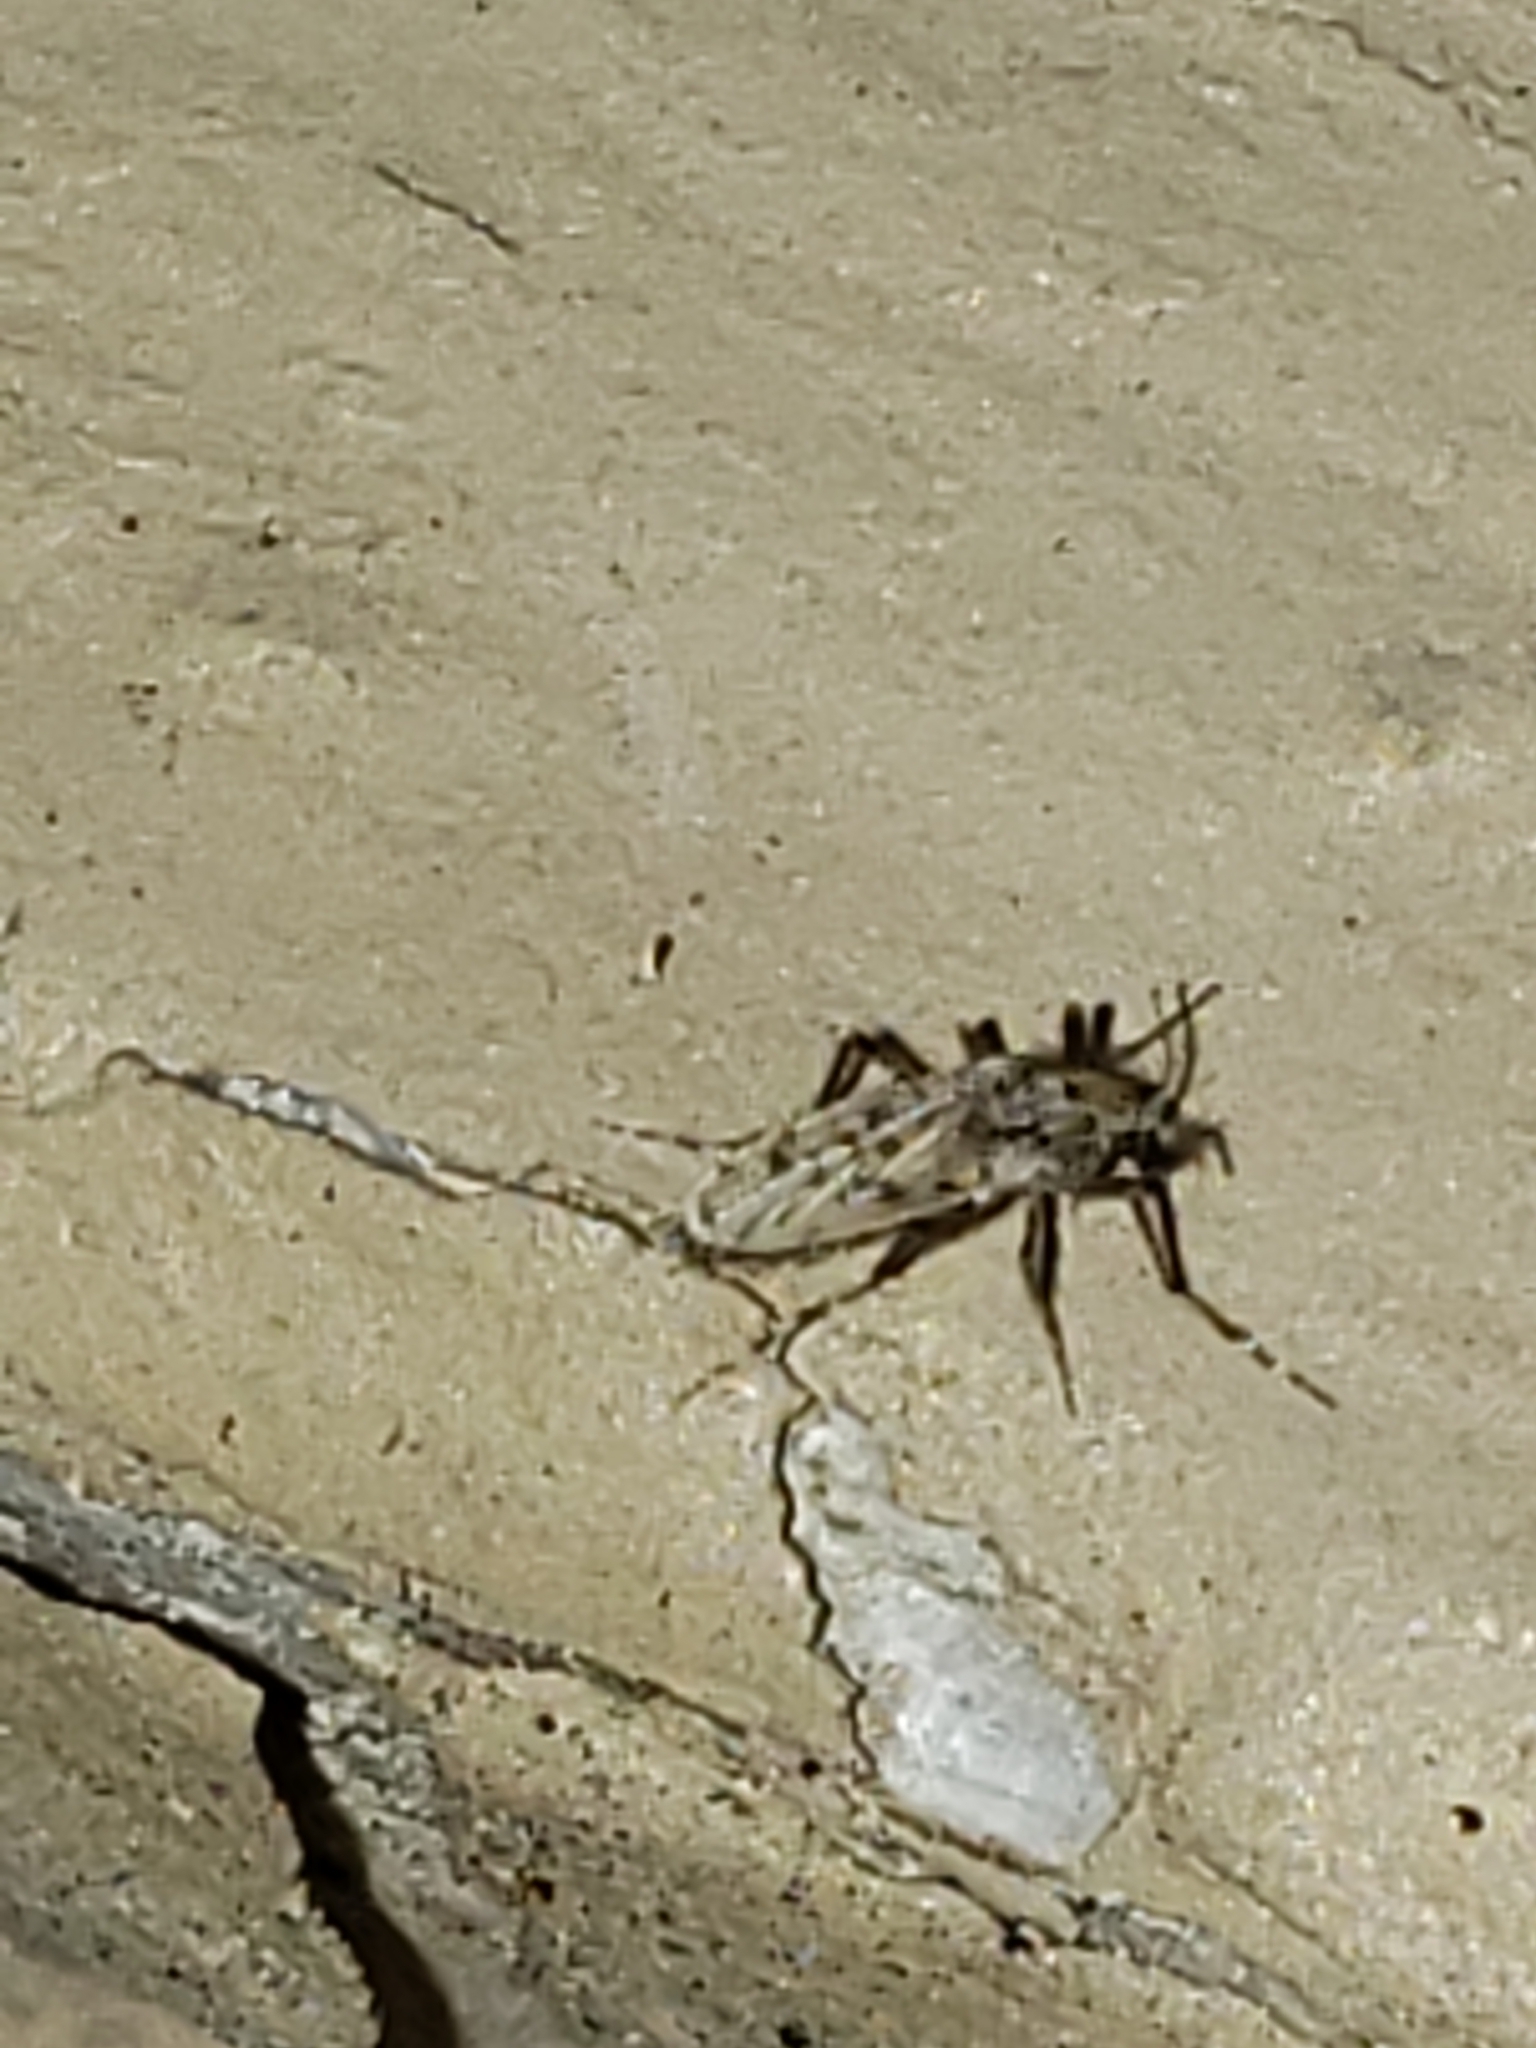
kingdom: Animalia
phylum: Arthropoda
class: Insecta
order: Diptera
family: Chaoboridae
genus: Chaoborus
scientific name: Chaoborus punctipennis
